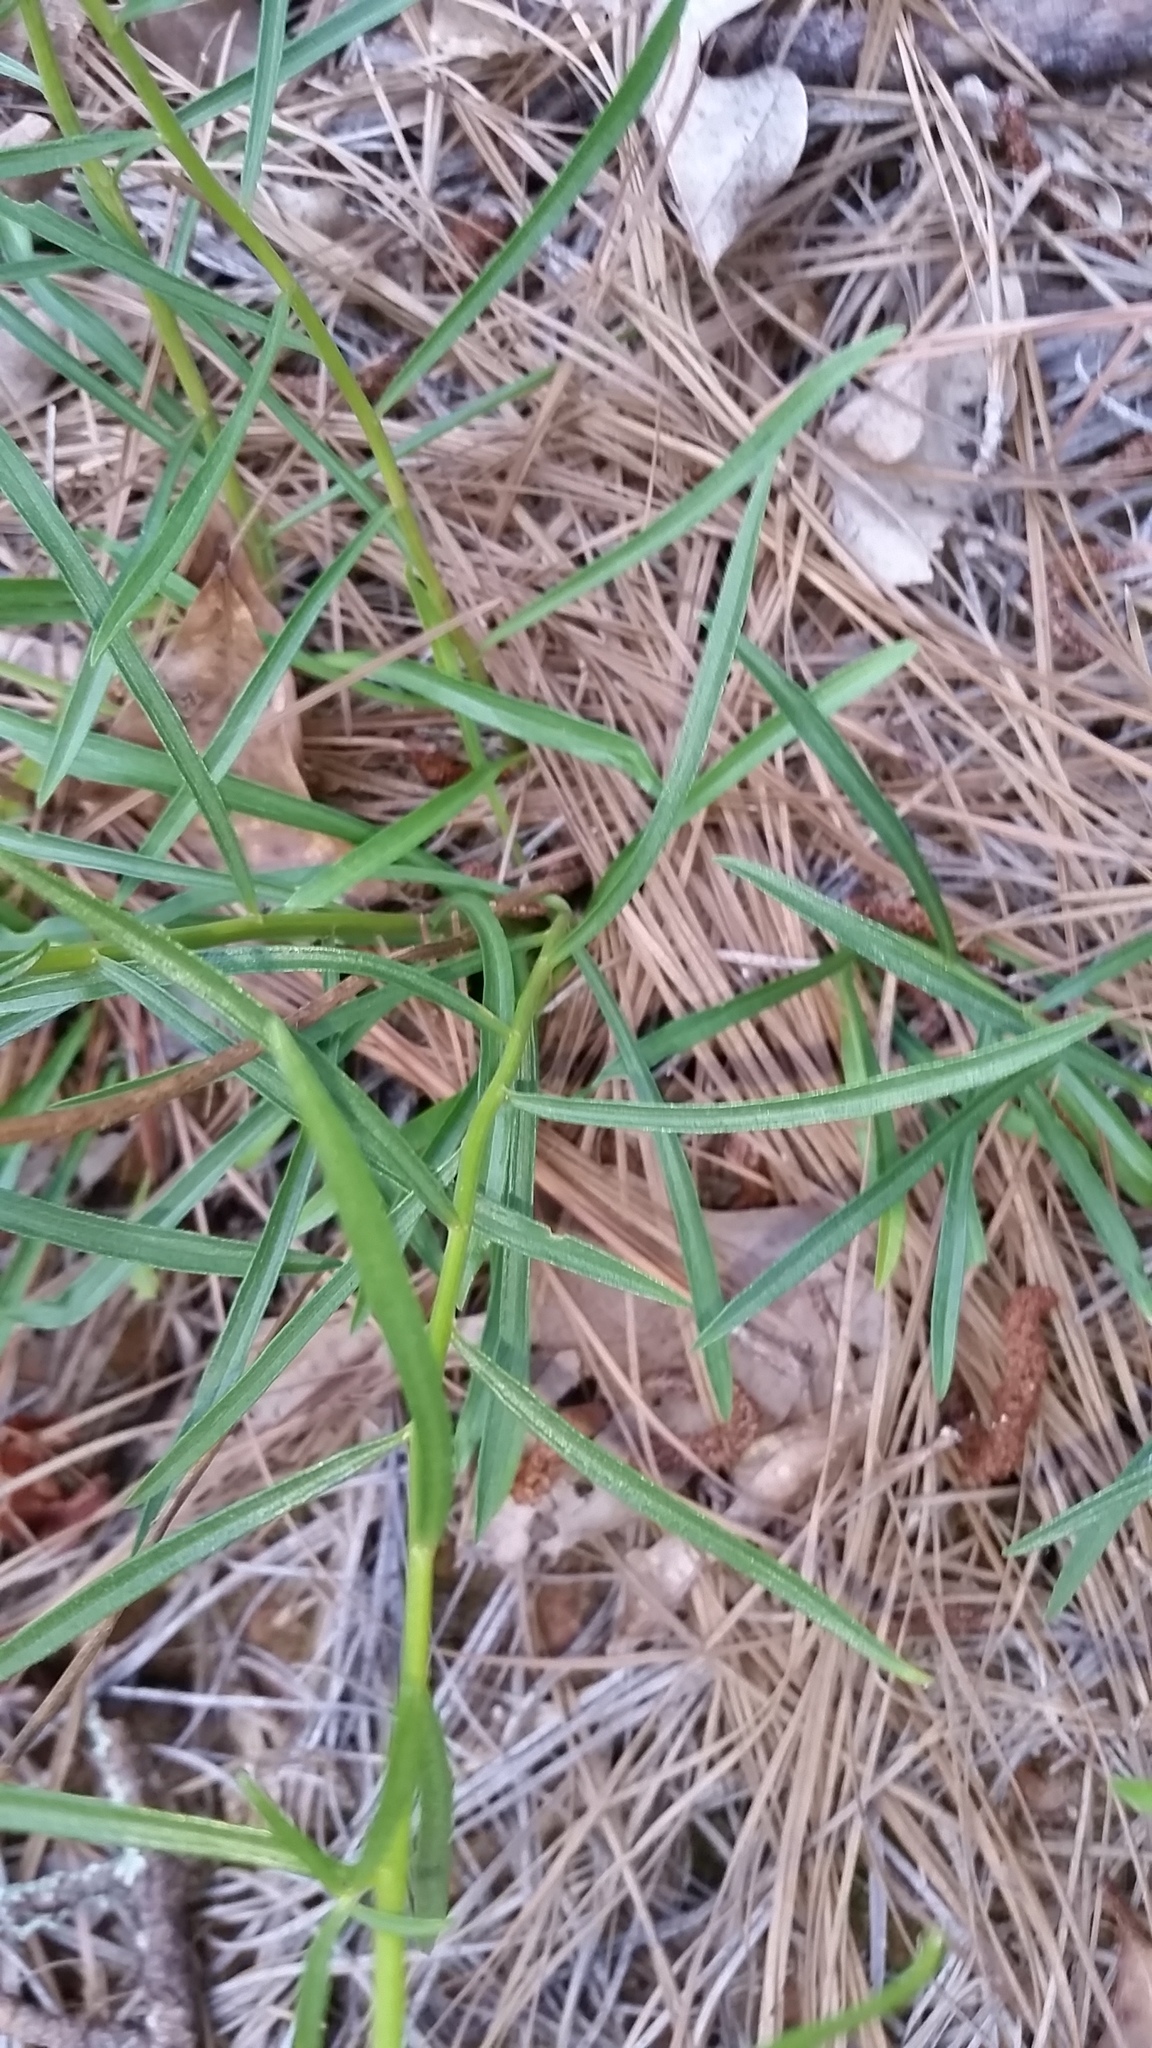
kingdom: Plantae
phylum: Tracheophyta
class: Magnoliopsida
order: Asterales
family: Asteraceae
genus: Sericocarpus
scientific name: Sericocarpus linifolius
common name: Narrow-leaf aster
